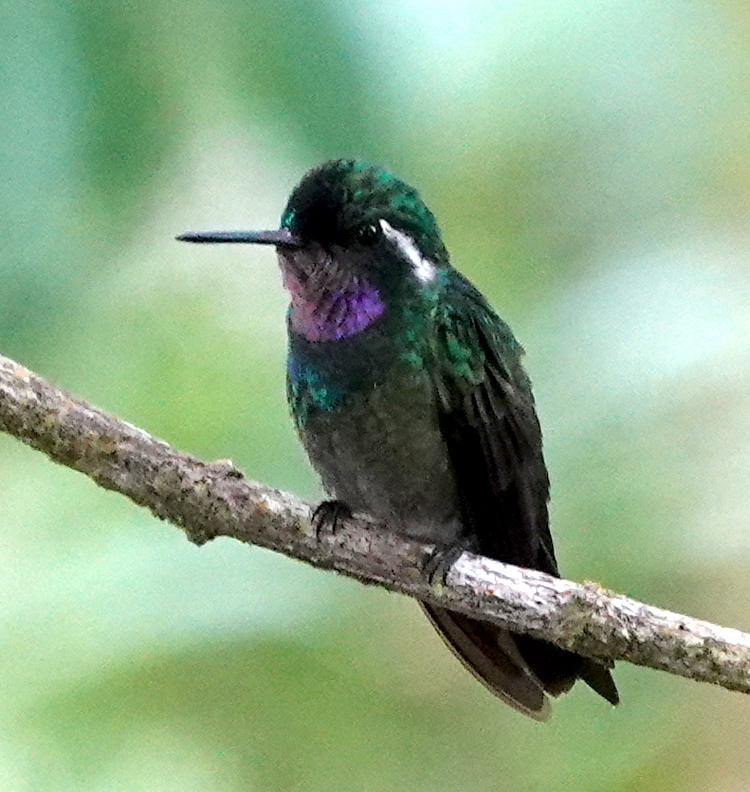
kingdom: Animalia
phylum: Chordata
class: Aves
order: Apodiformes
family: Trochilidae
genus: Lampornis
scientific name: Lampornis calolaemus
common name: Purple-throated mountain-gem
